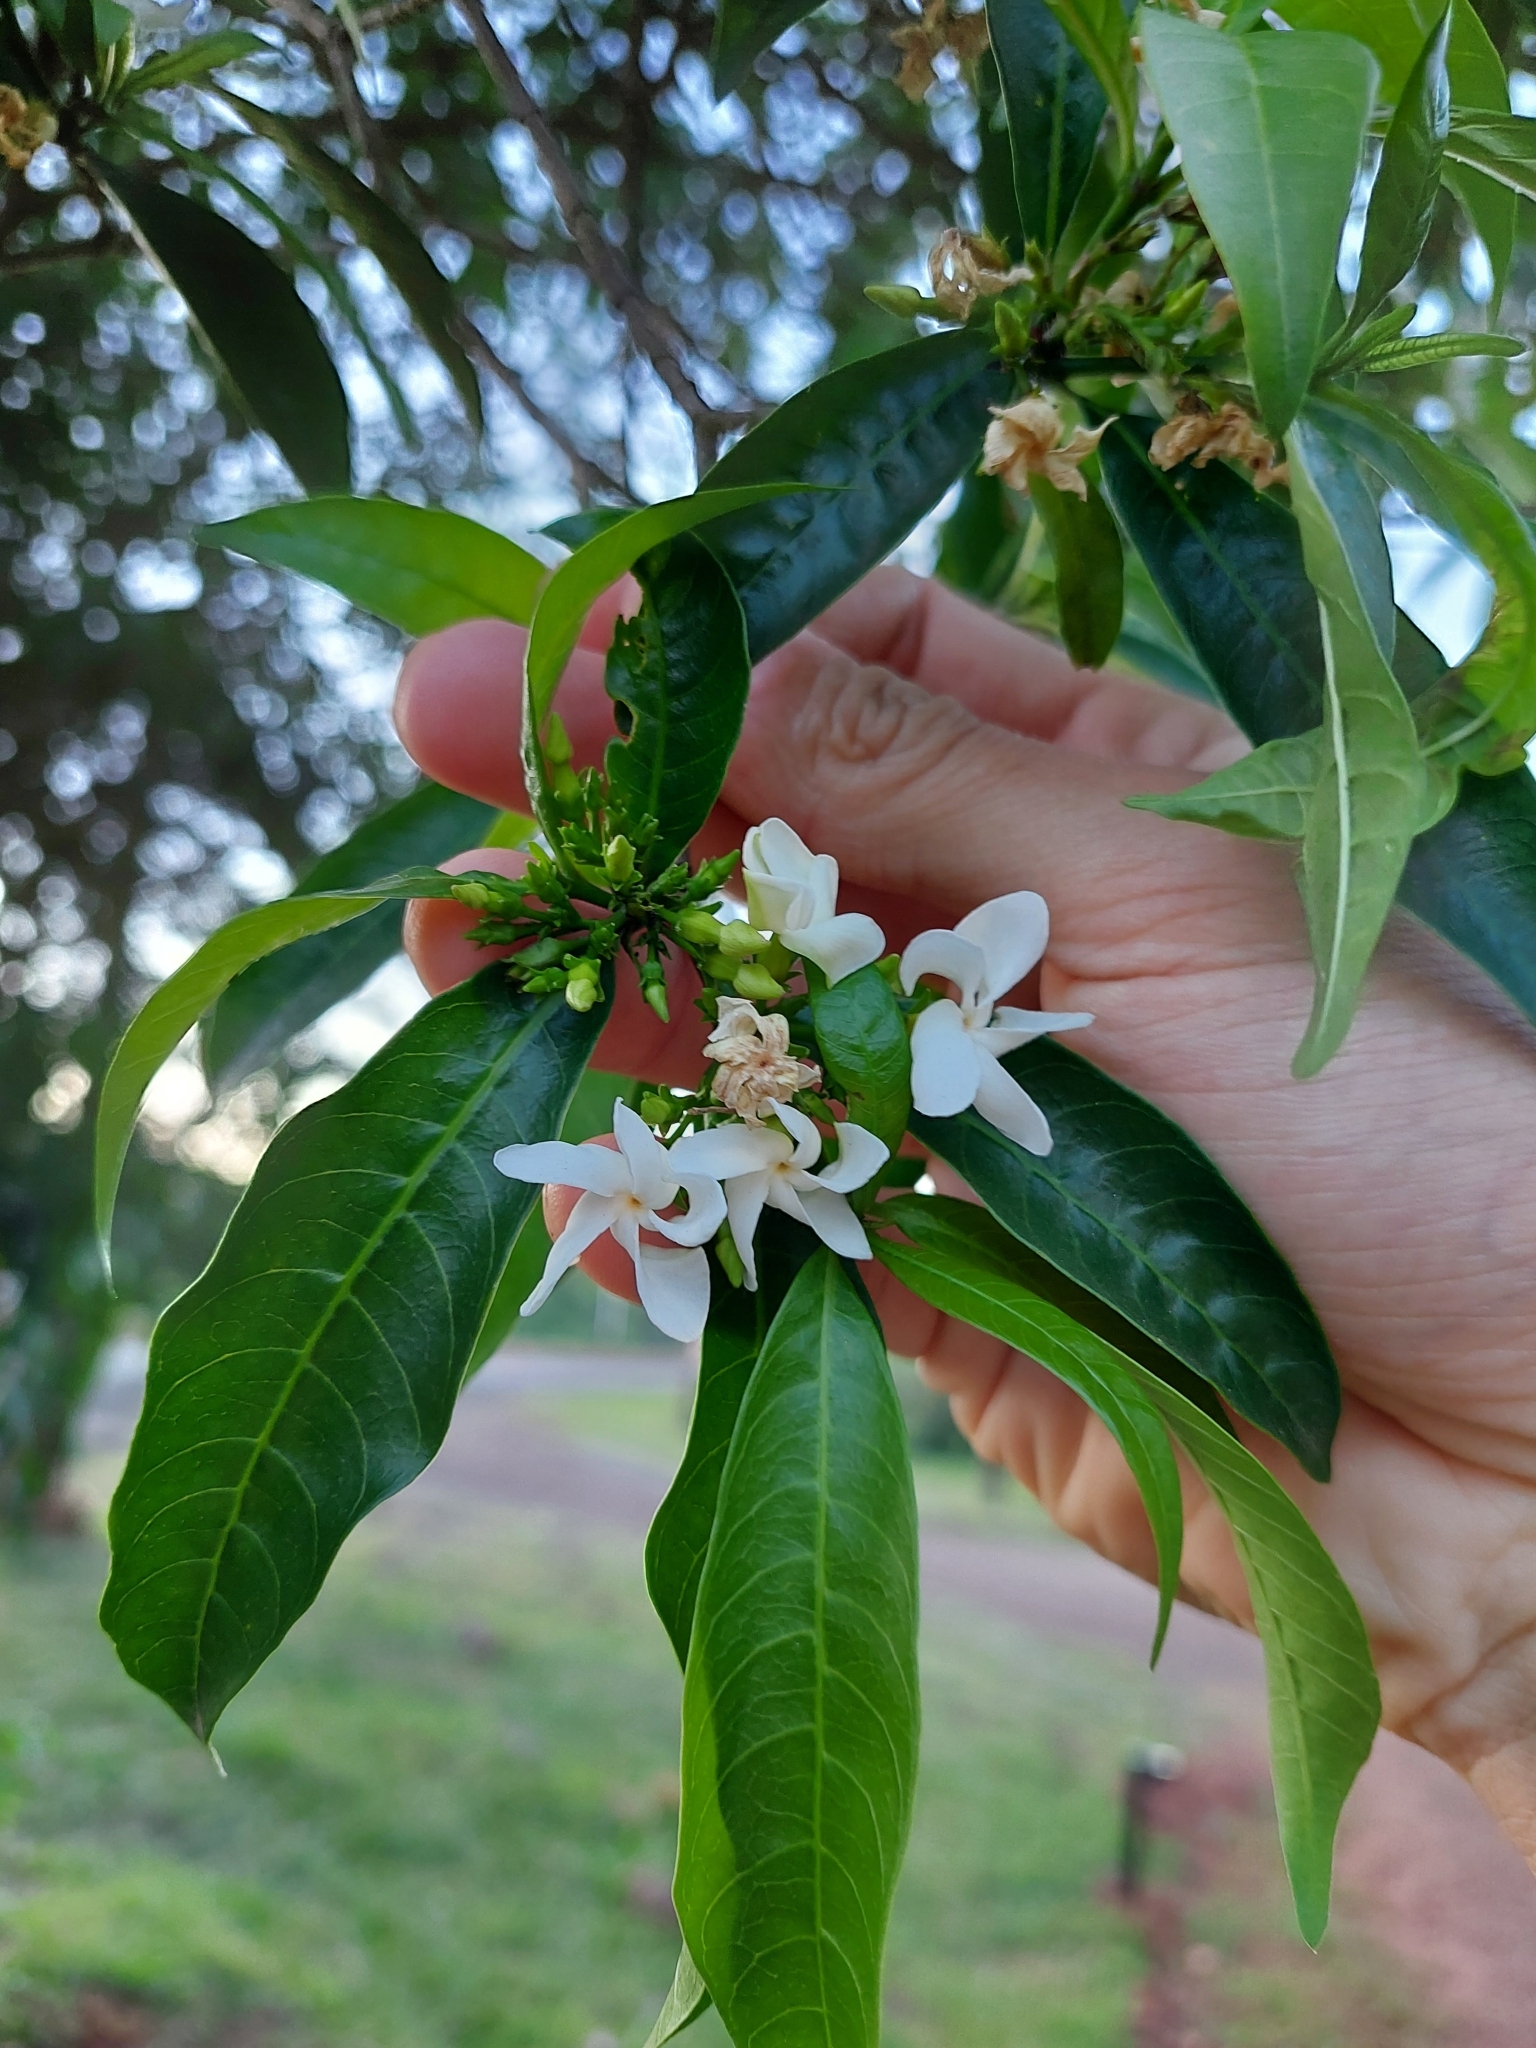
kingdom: Plantae
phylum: Tracheophyta
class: Magnoliopsida
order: Gentianales
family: Apocynaceae
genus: Tabernaemontana
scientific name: Tabernaemontana catharinensis
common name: Pinwheel-flower
